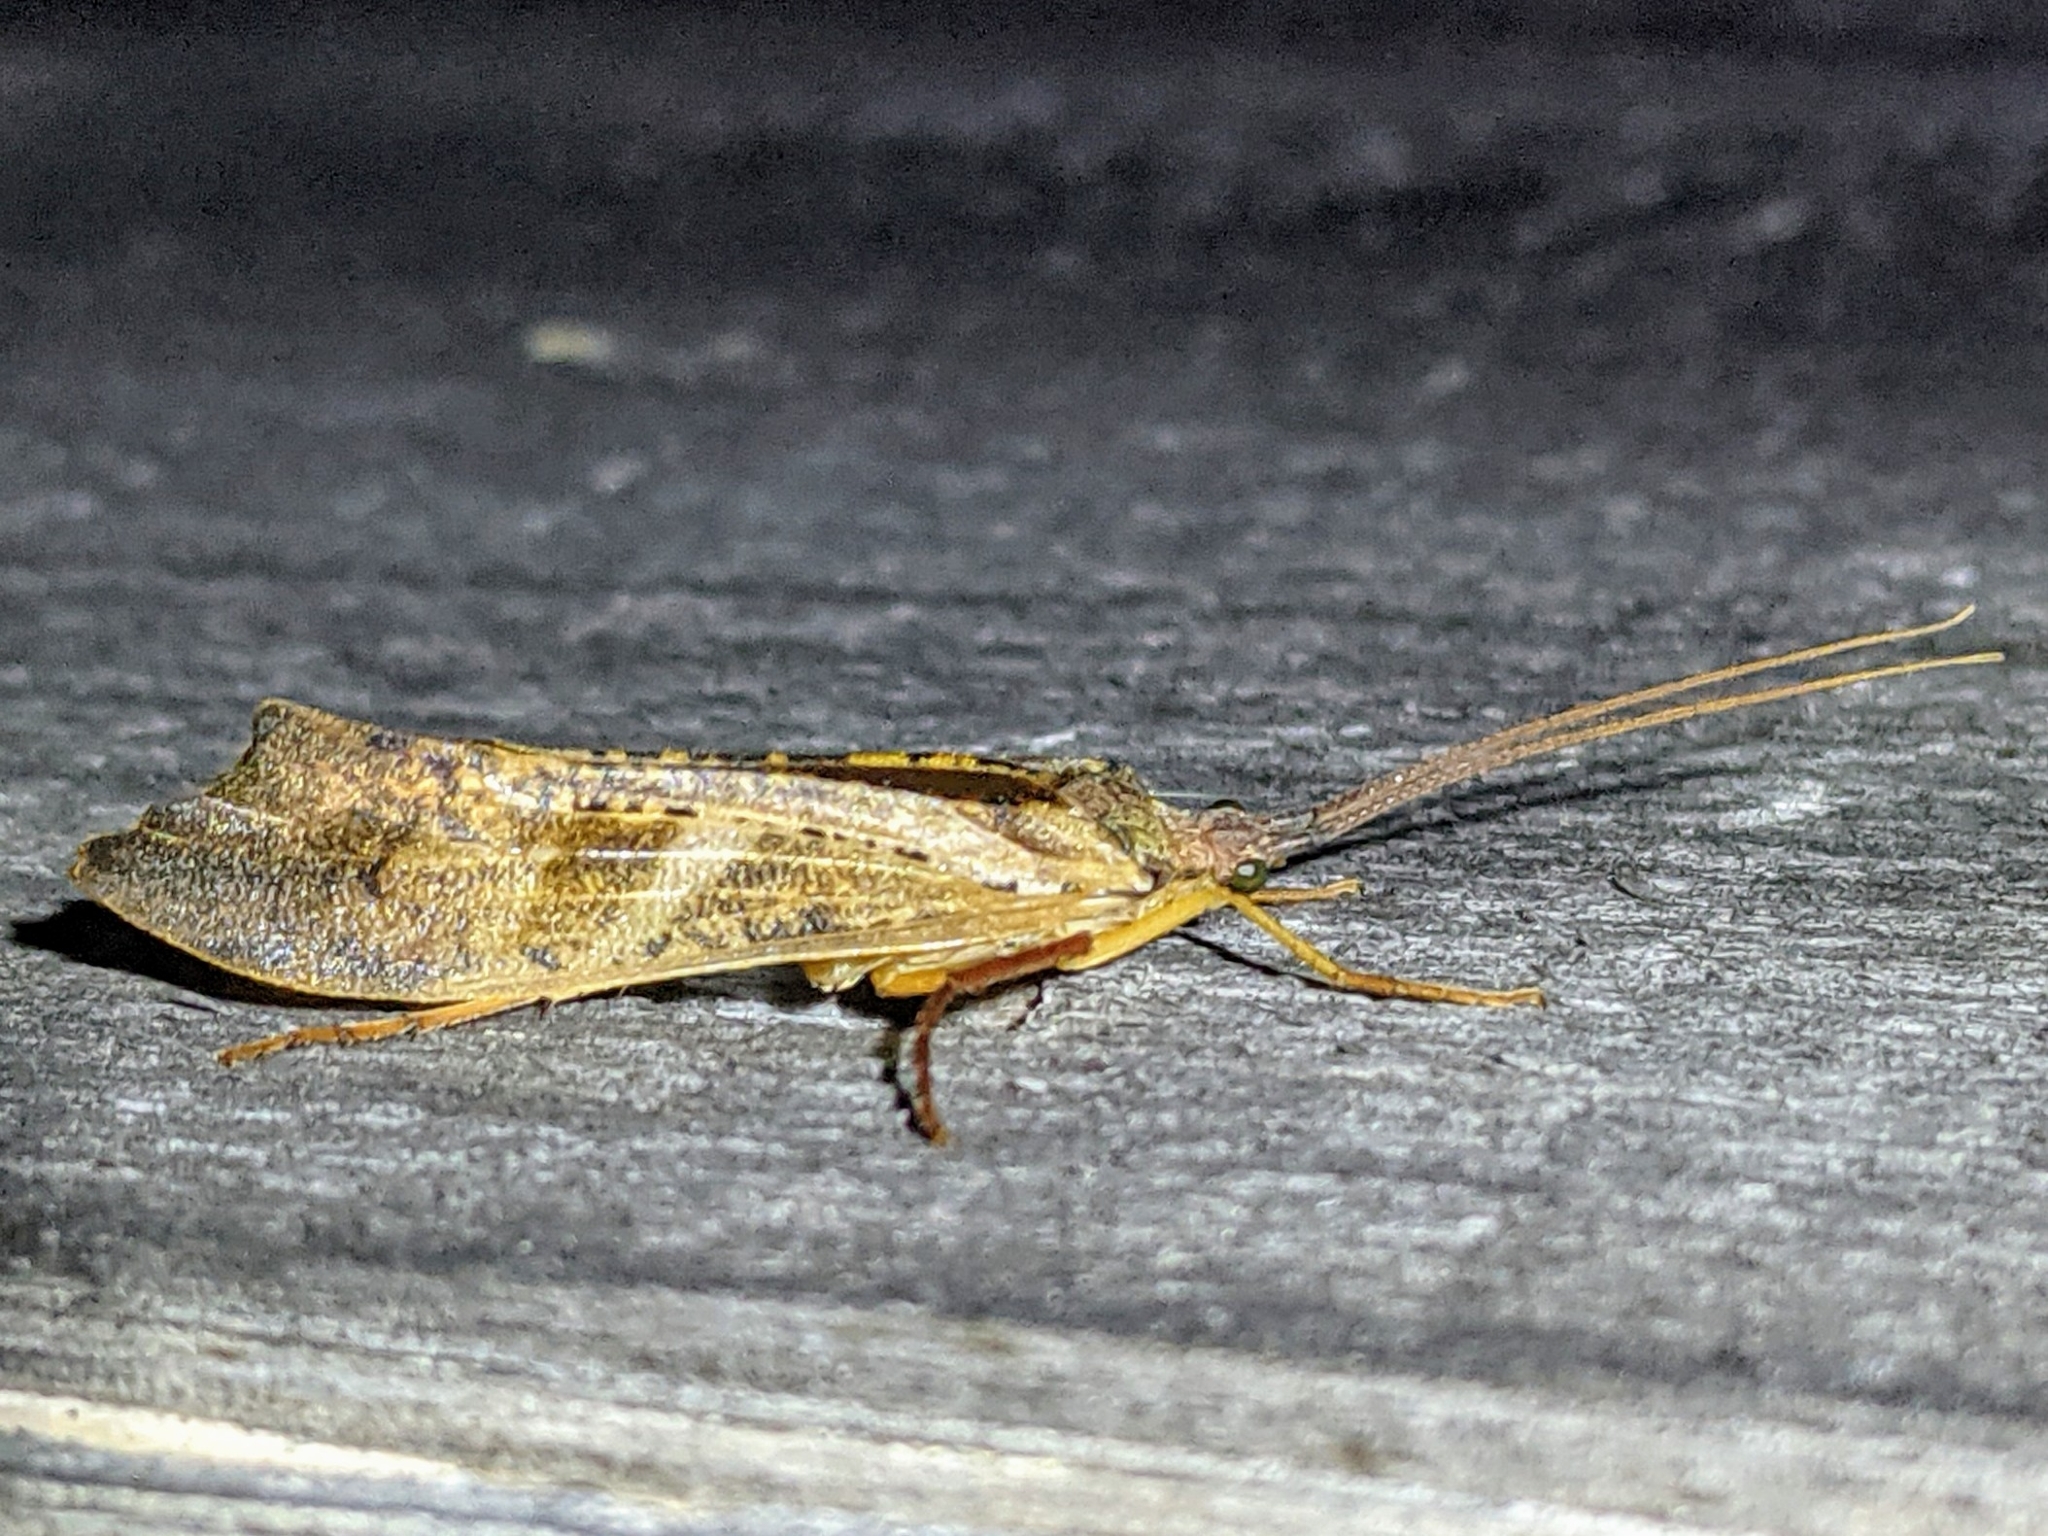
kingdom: Animalia
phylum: Arthropoda
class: Insecta
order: Trichoptera
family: Limnephilidae
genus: Nemotaulius
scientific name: Nemotaulius hostilis
